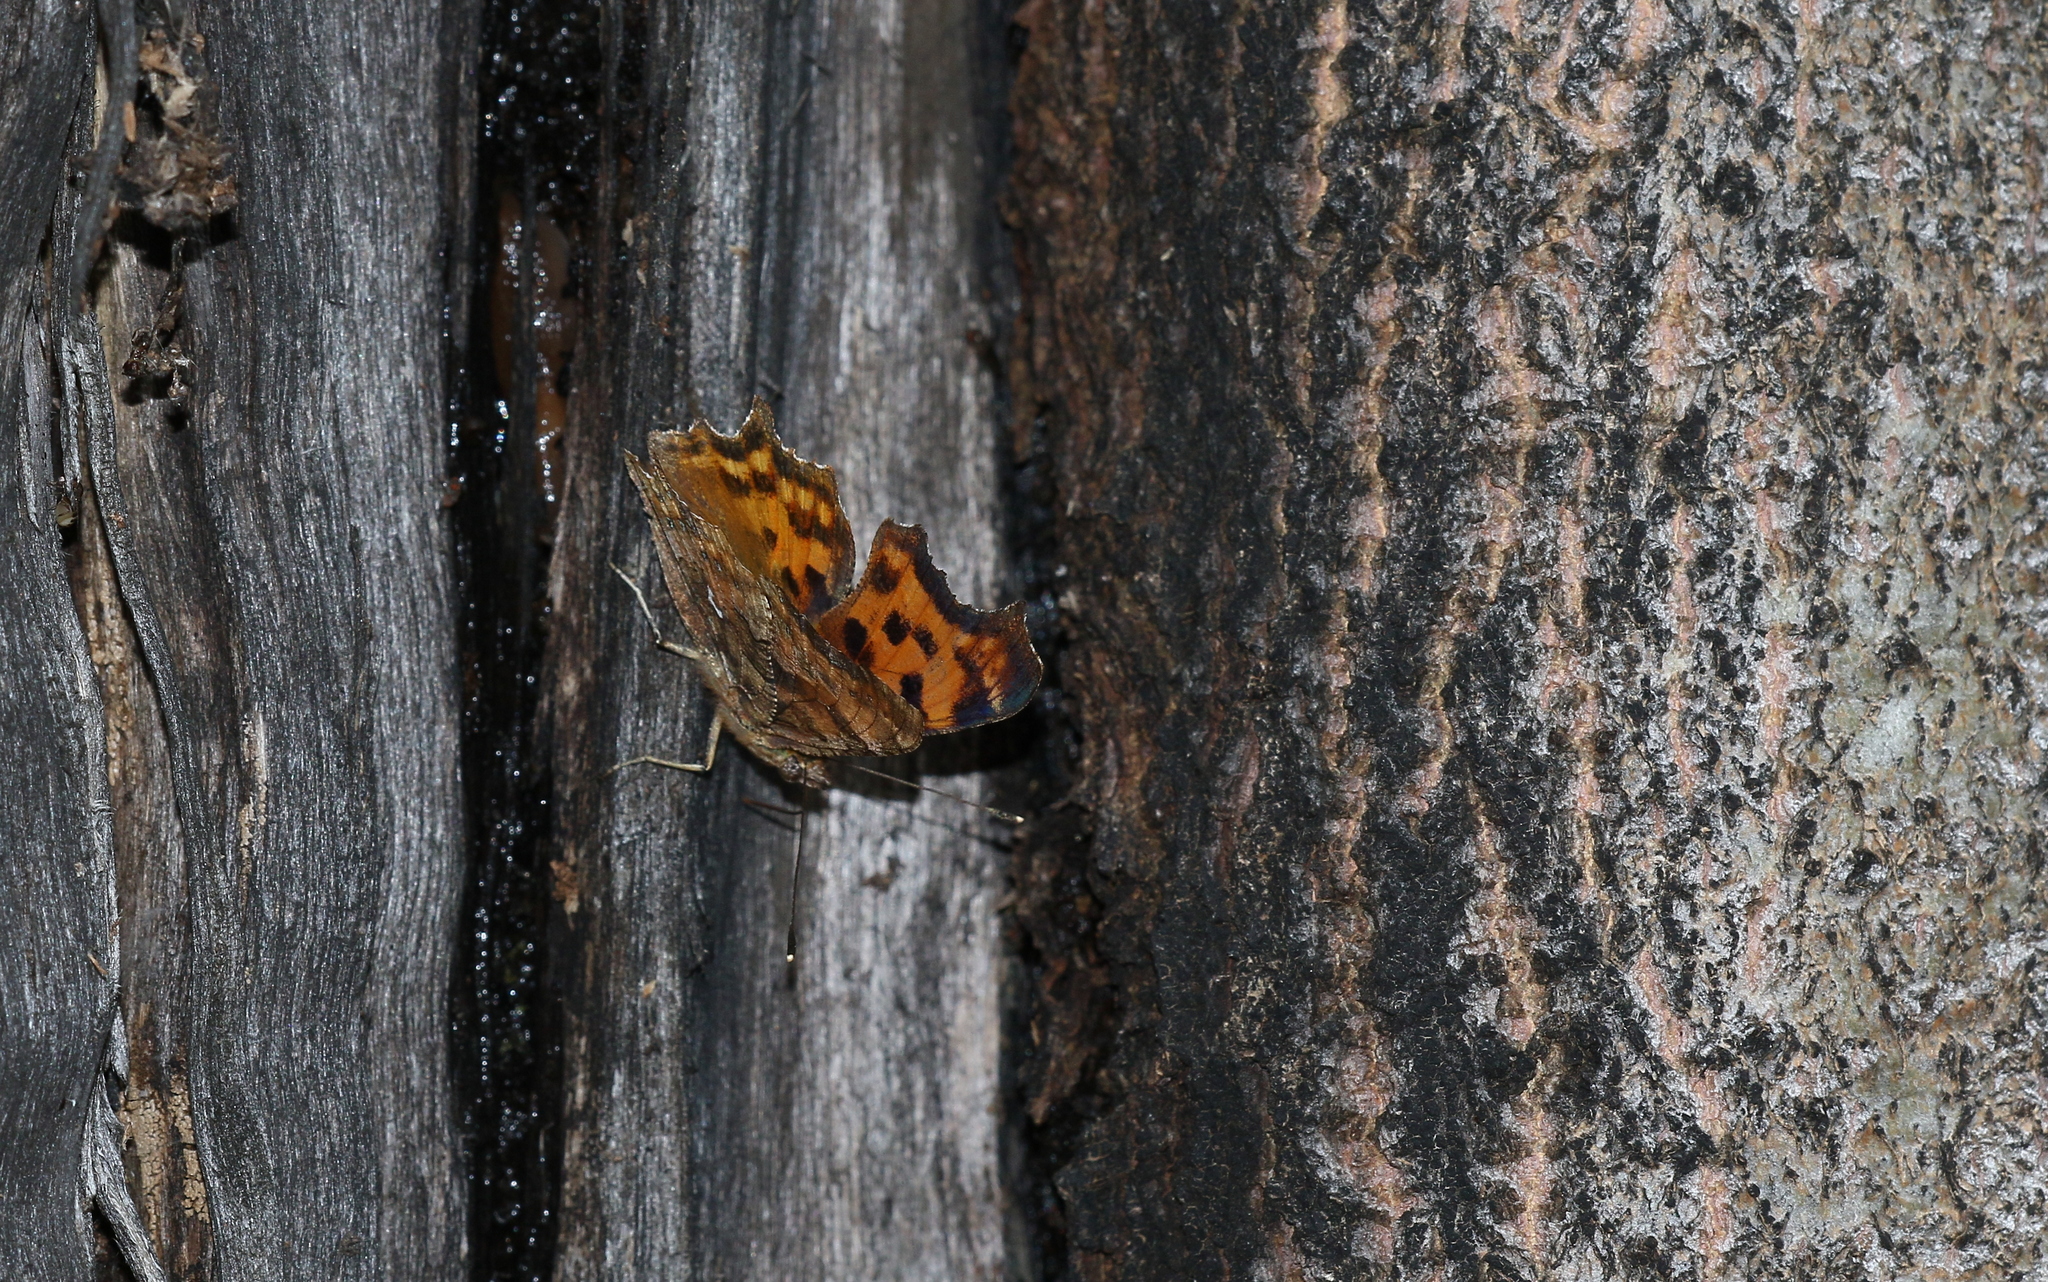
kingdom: Animalia
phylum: Arthropoda
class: Insecta
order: Lepidoptera
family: Nymphalidae
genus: Polygonia
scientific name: Polygonia c-album
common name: Comma
